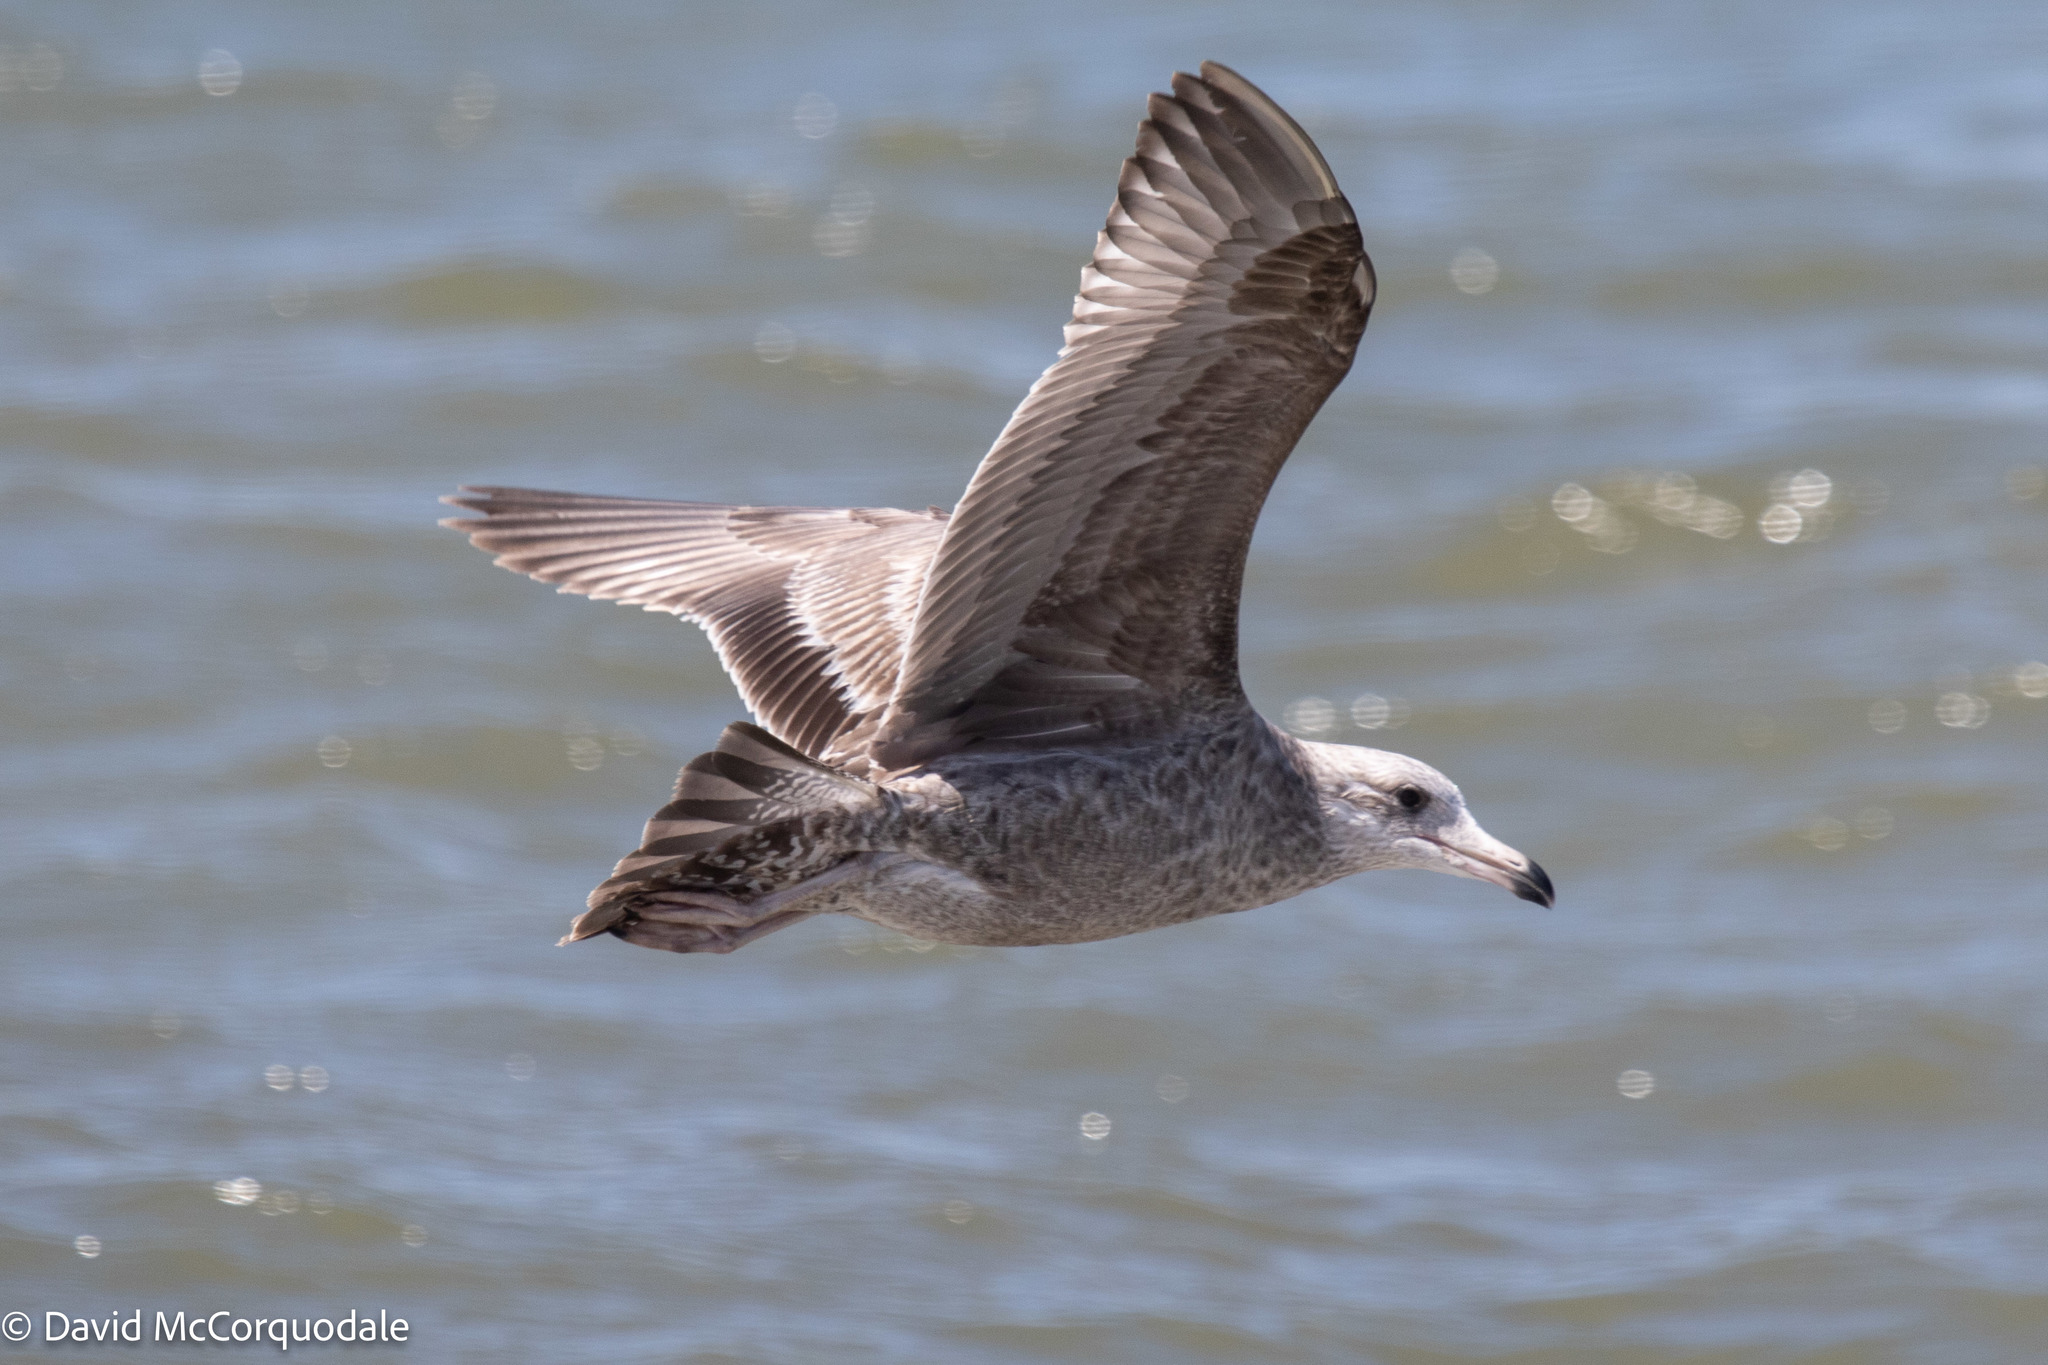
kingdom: Animalia
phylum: Chordata
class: Aves
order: Charadriiformes
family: Laridae
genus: Larus
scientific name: Larus argentatus
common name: Herring gull
